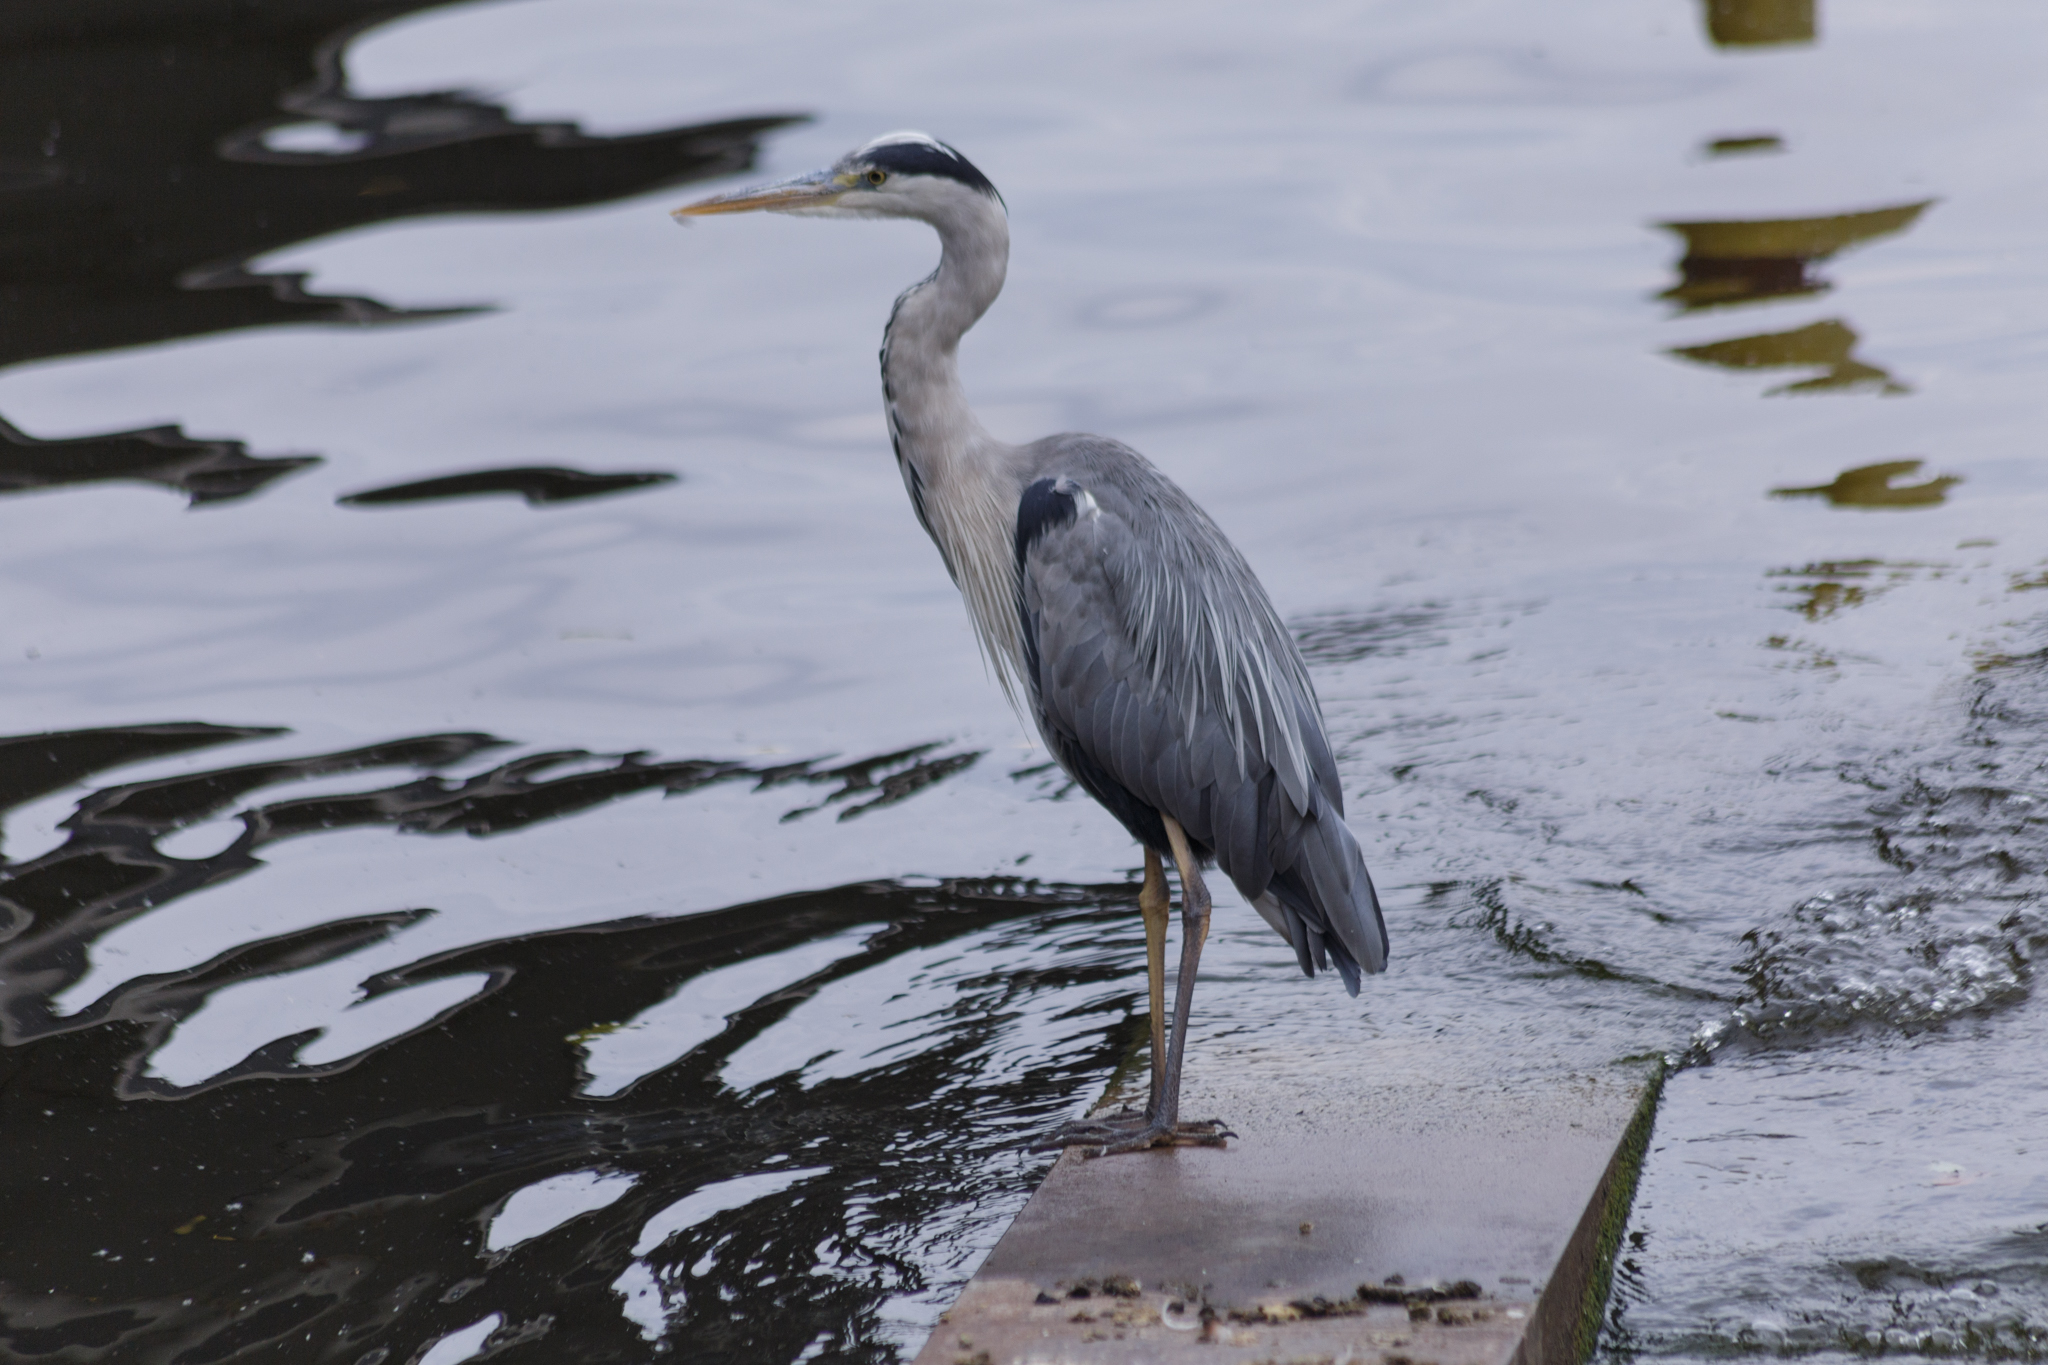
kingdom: Animalia
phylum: Chordata
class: Aves
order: Pelecaniformes
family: Ardeidae
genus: Ardea
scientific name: Ardea cinerea
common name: Grey heron
